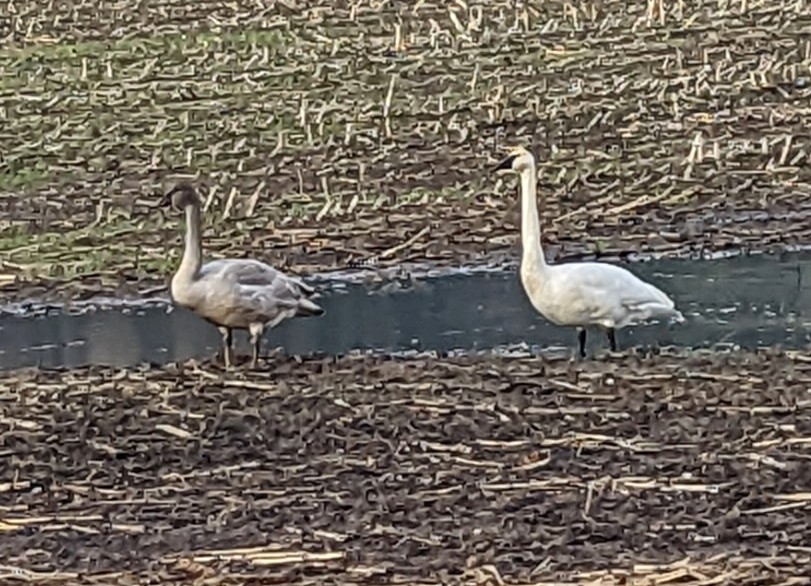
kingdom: Animalia
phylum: Chordata
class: Aves
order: Anseriformes
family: Anatidae
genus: Cygnus
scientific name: Cygnus buccinator
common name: Trumpeter swan
